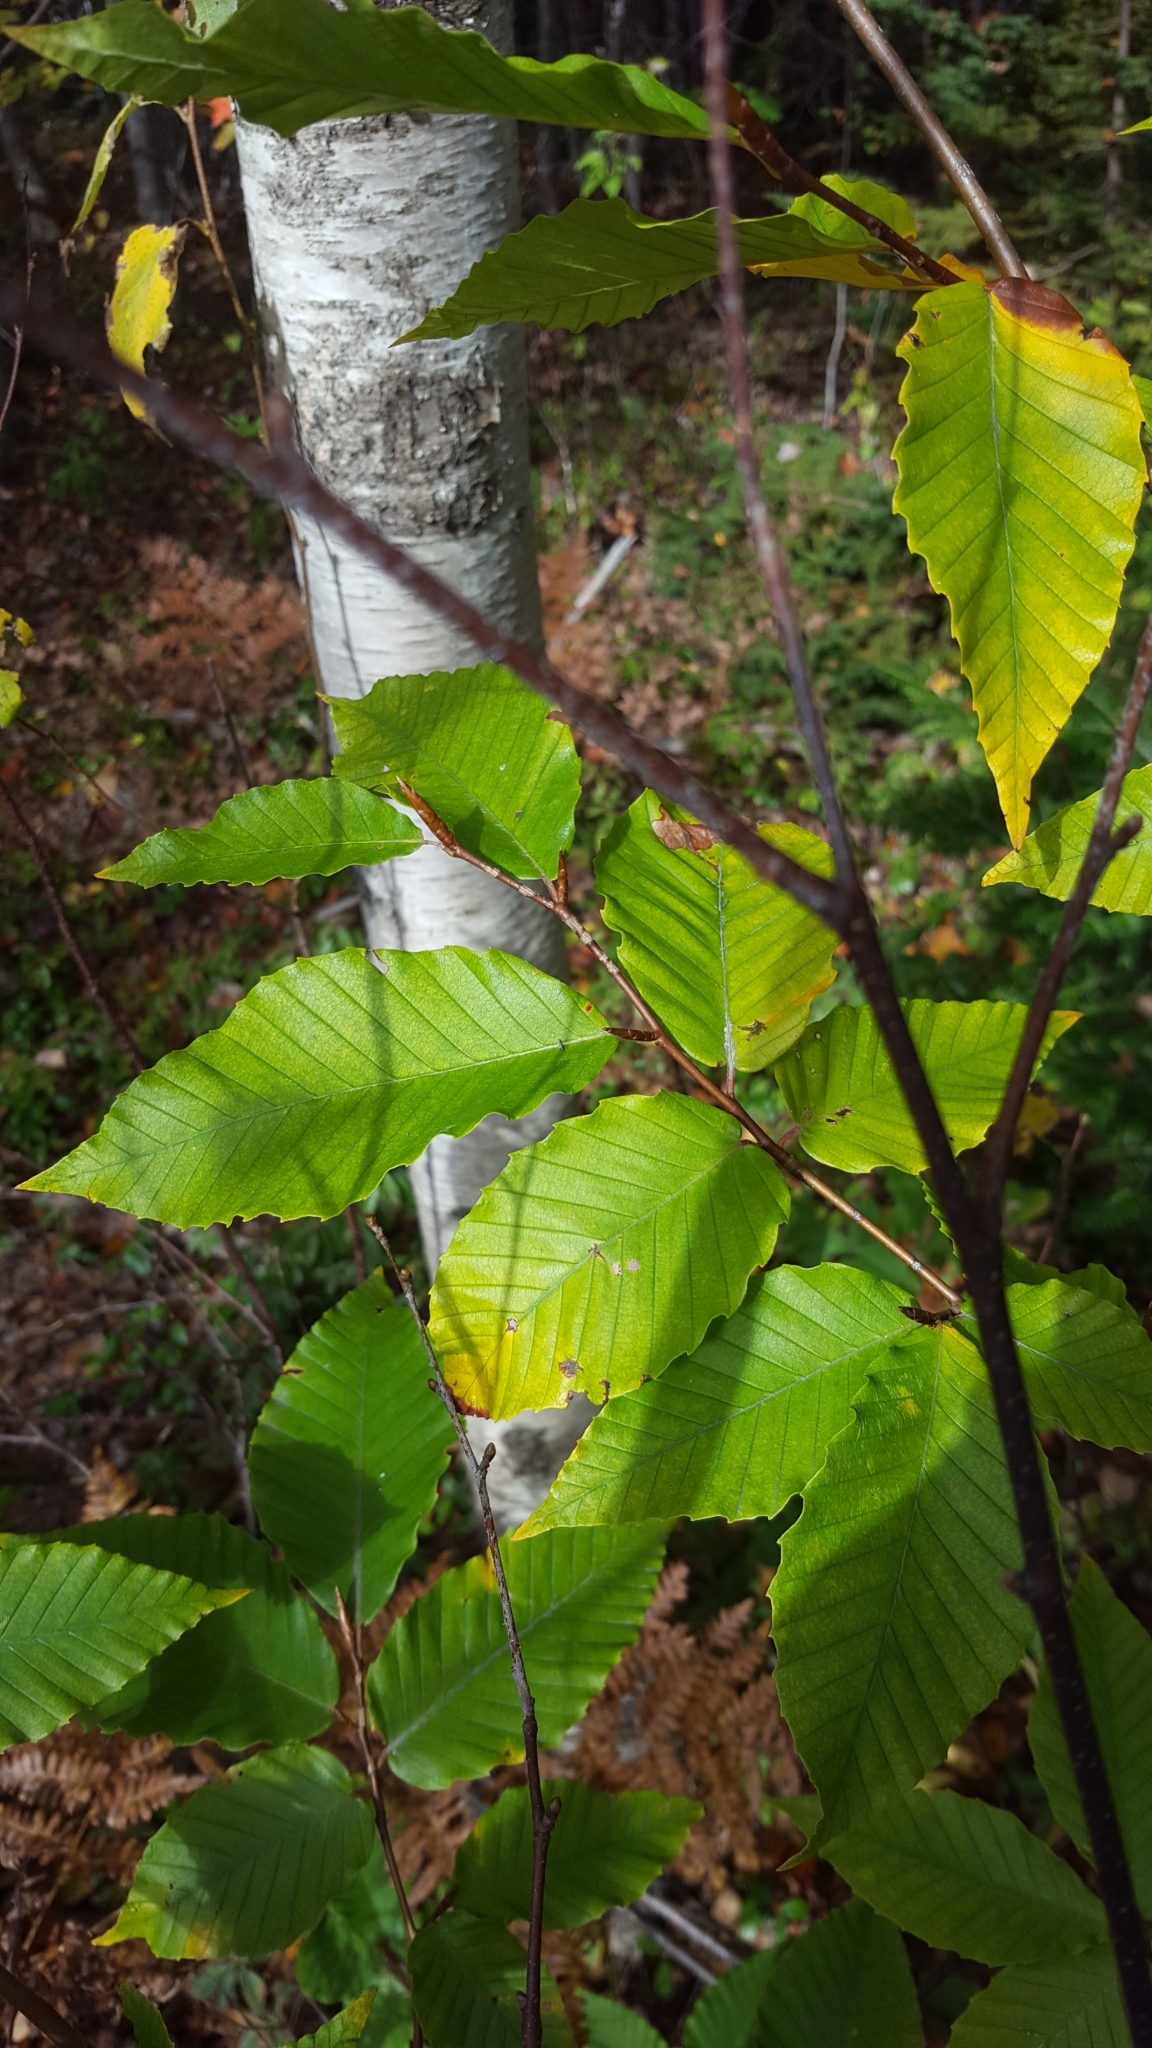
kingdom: Plantae
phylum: Tracheophyta
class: Magnoliopsida
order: Fagales
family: Fagaceae
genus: Fagus
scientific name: Fagus grandifolia
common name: American beech
